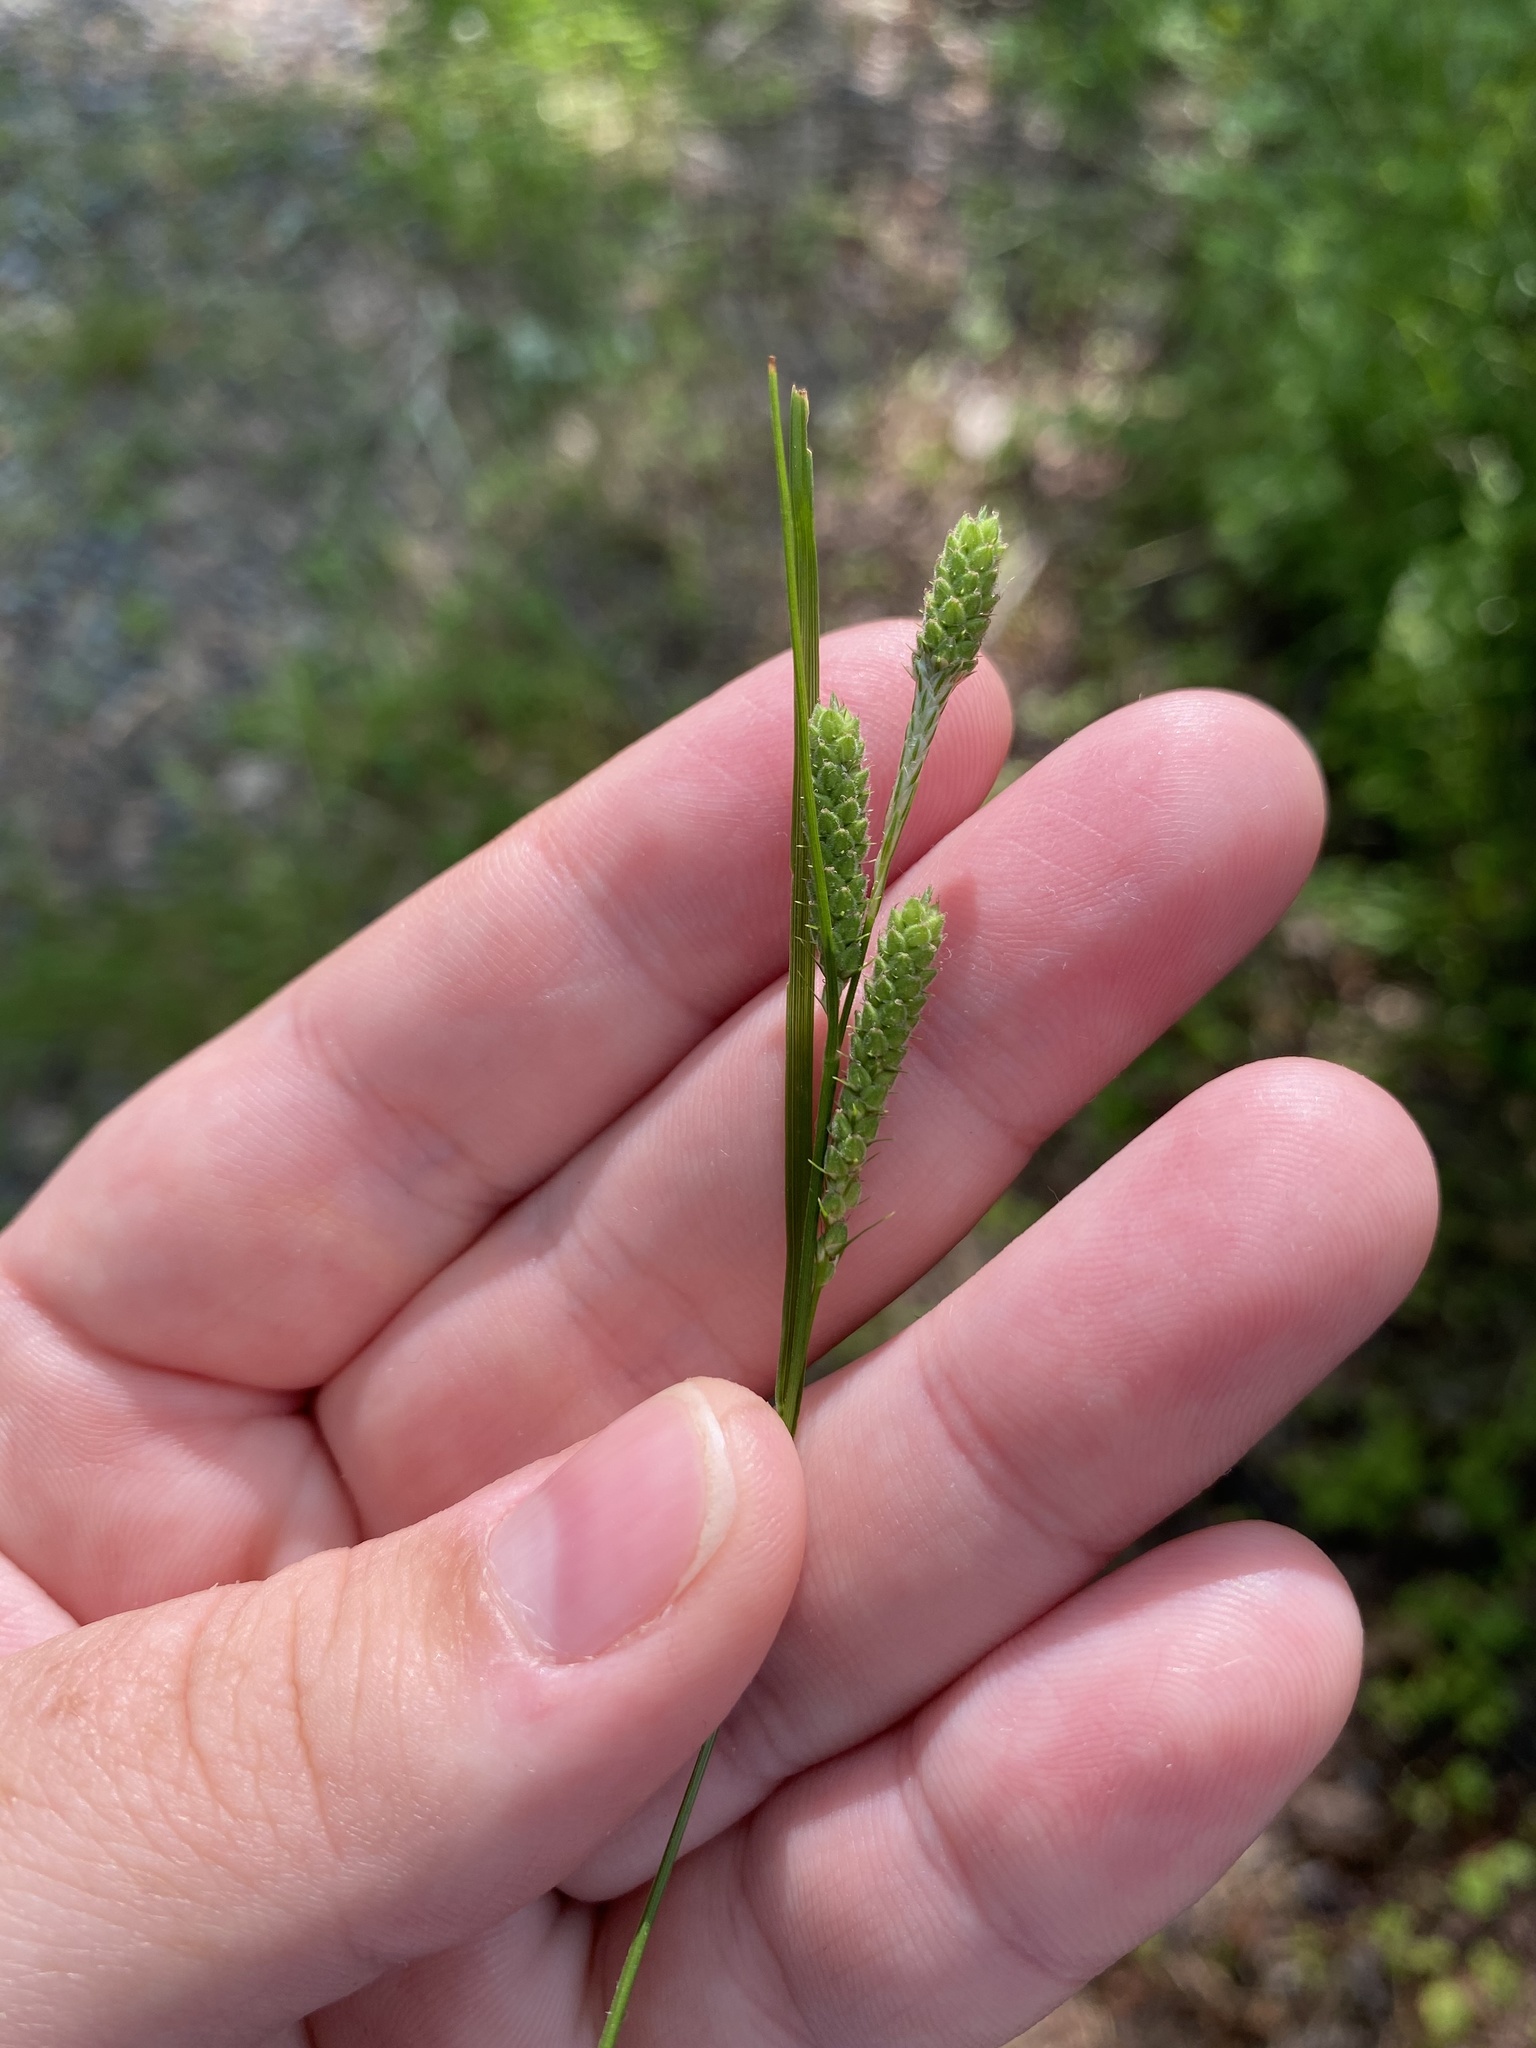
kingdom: Plantae
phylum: Tracheophyta
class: Liliopsida
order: Poales
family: Cyperaceae
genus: Carex
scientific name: Carex swanii
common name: Downy green sedge
